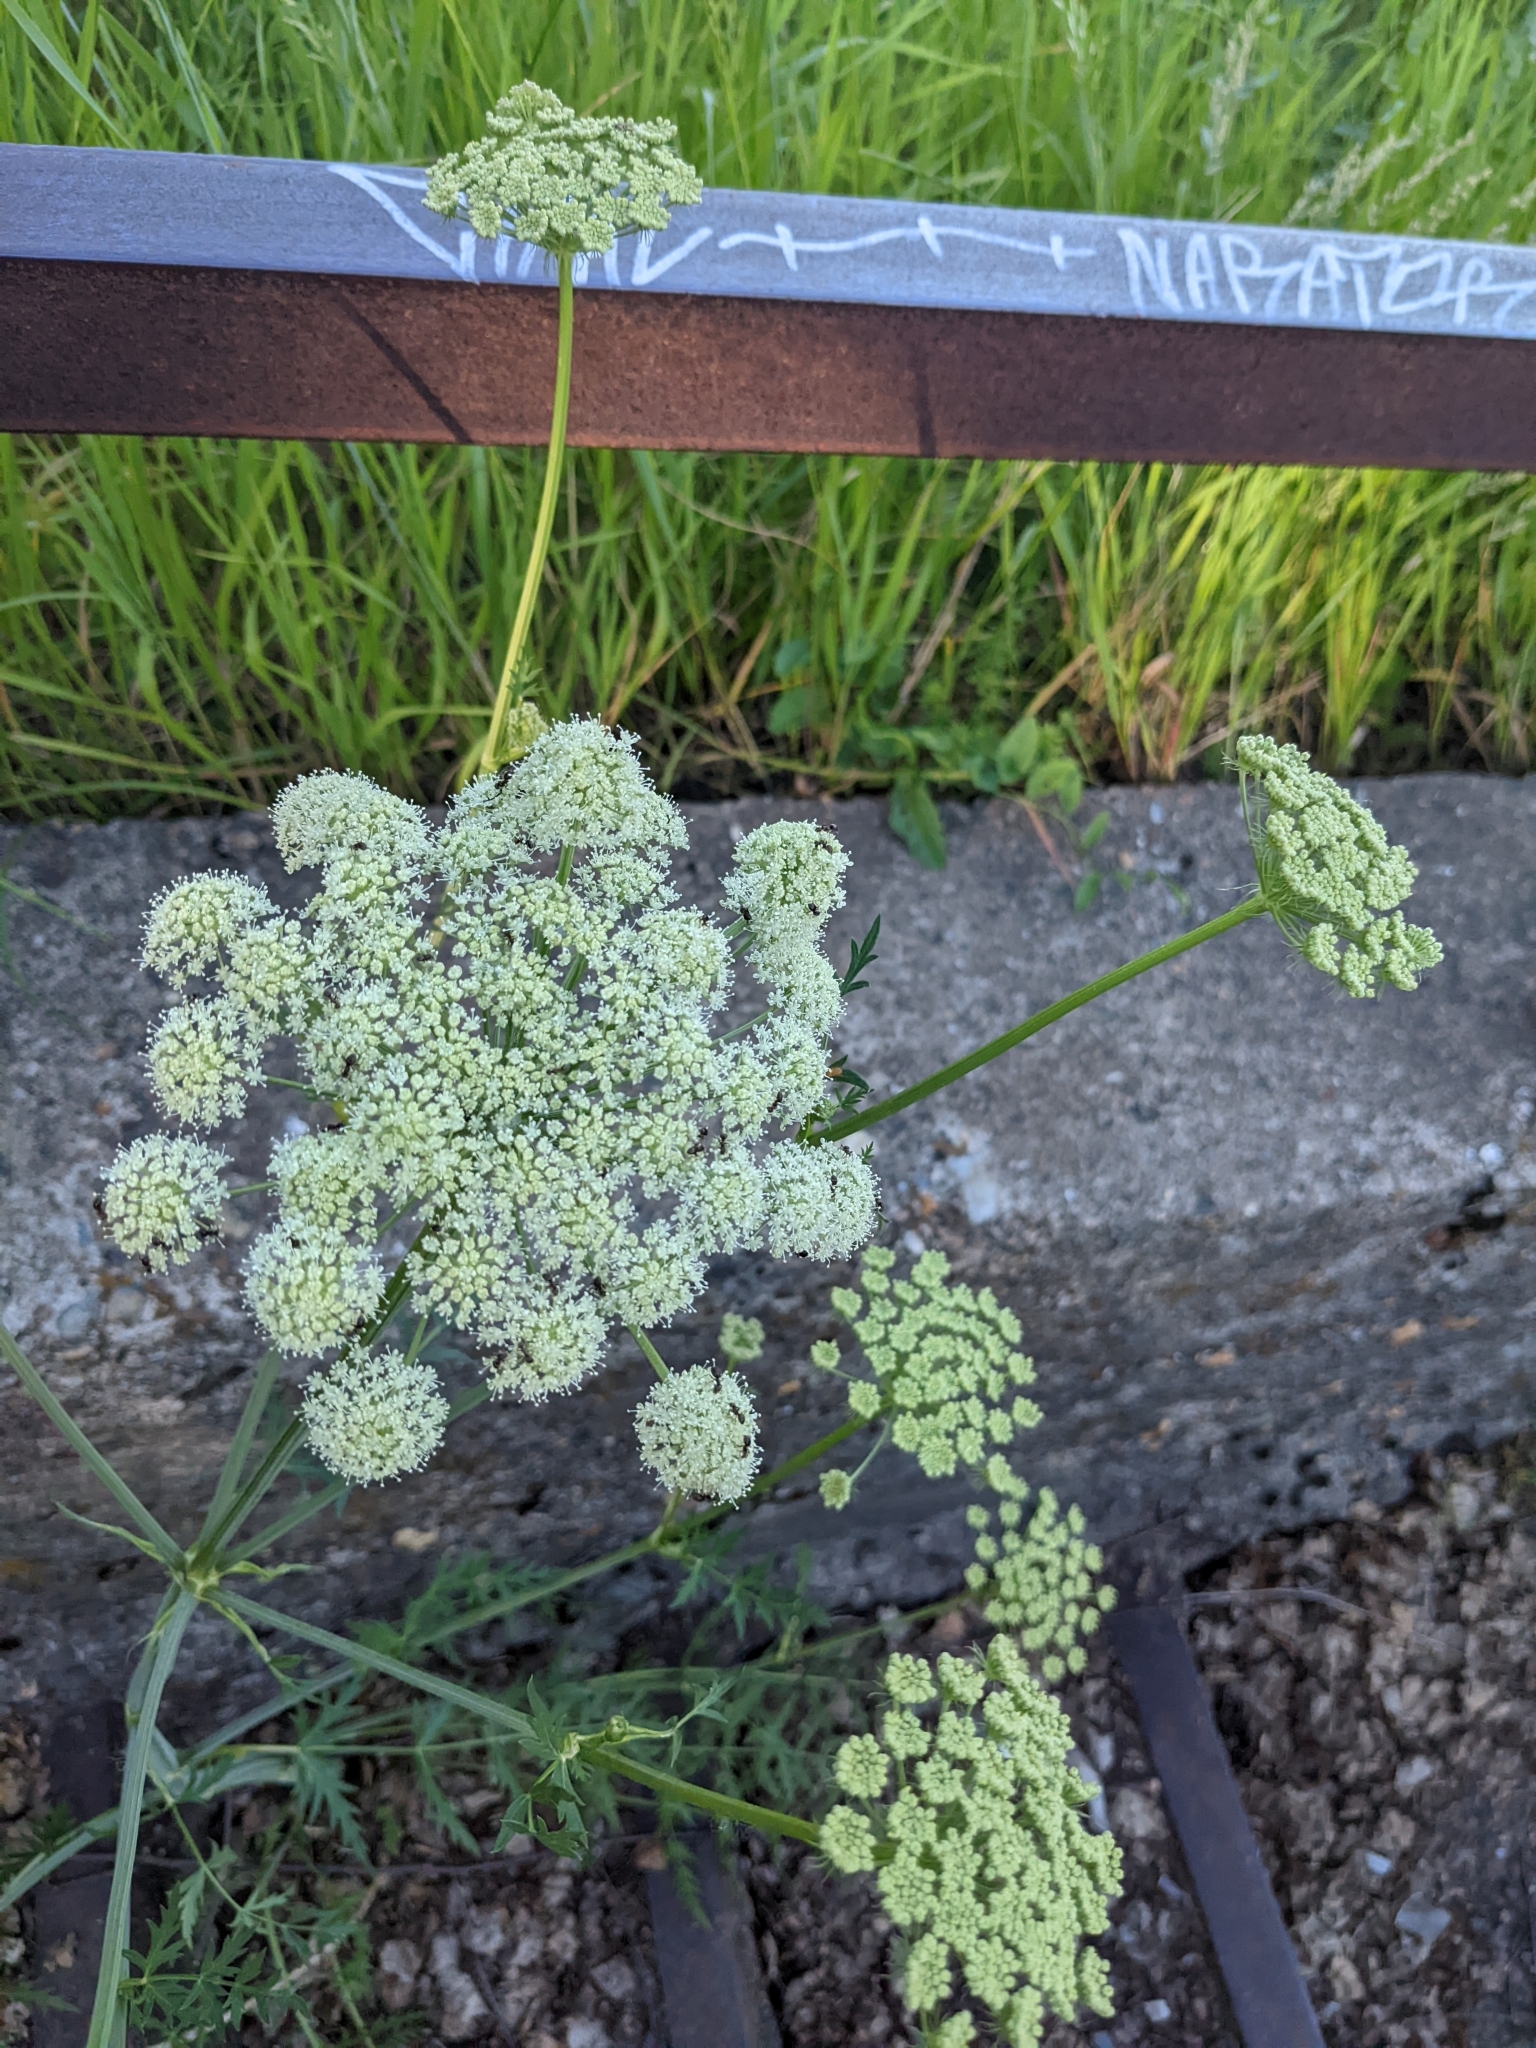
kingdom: Plantae
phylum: Tracheophyta
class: Magnoliopsida
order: Apiales
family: Apiaceae
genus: Seseli
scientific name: Seseli libanotis
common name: Mooncarrot
